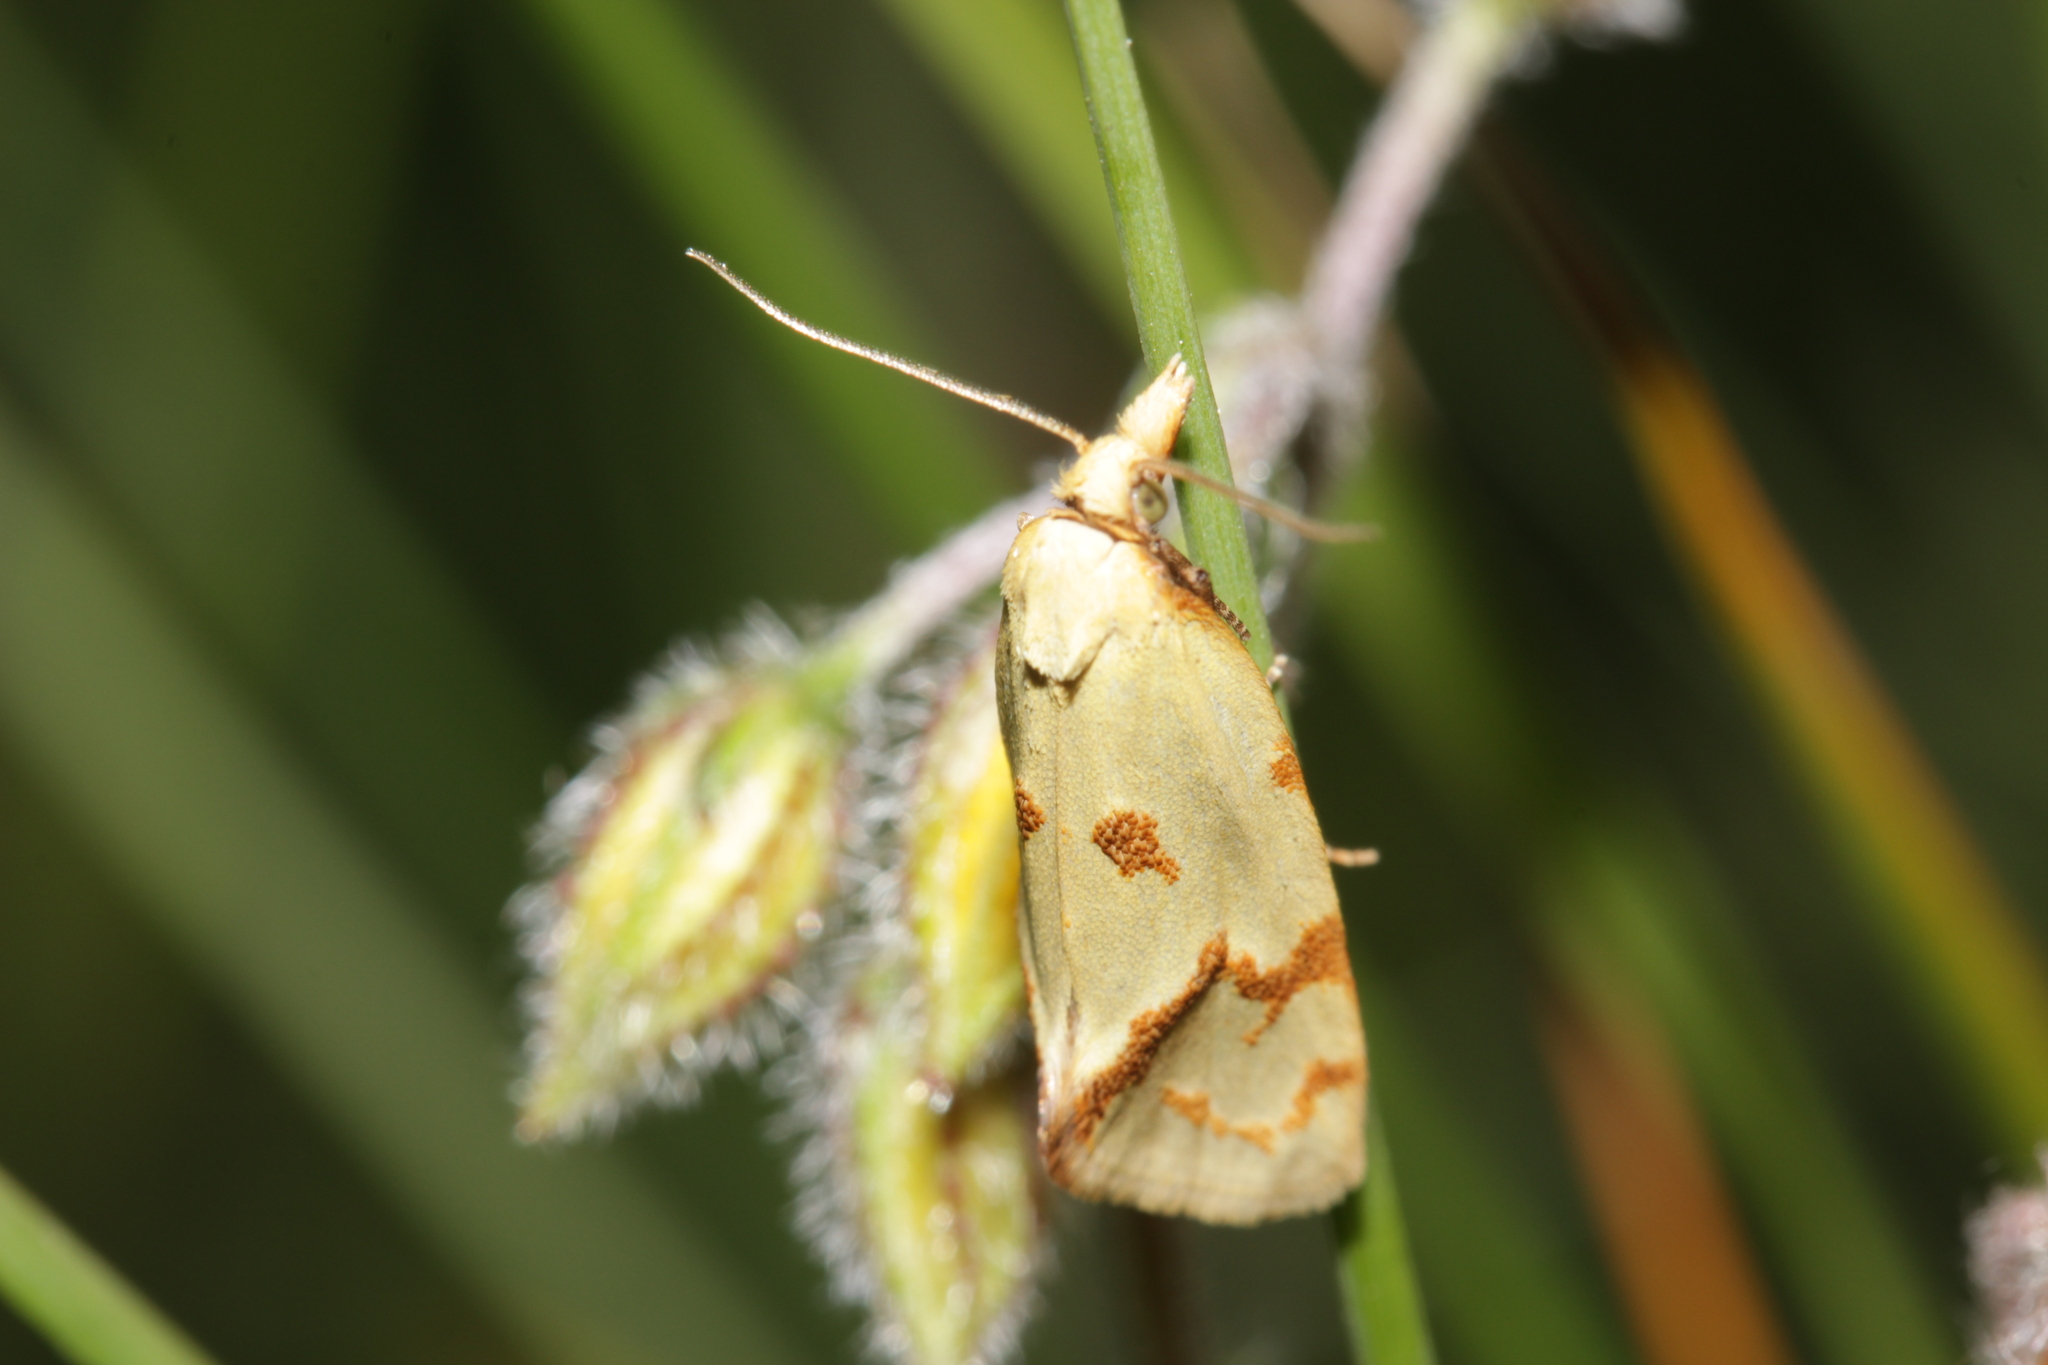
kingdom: Animalia
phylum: Arthropoda
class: Insecta
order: Lepidoptera
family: Tortricidae
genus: Agapeta
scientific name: Agapeta hamana
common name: Common yellow conch
